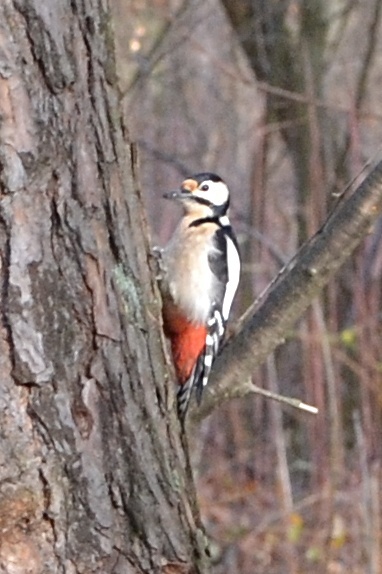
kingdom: Animalia
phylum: Chordata
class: Aves
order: Piciformes
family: Picidae
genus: Dendrocopos
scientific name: Dendrocopos major
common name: Great spotted woodpecker
